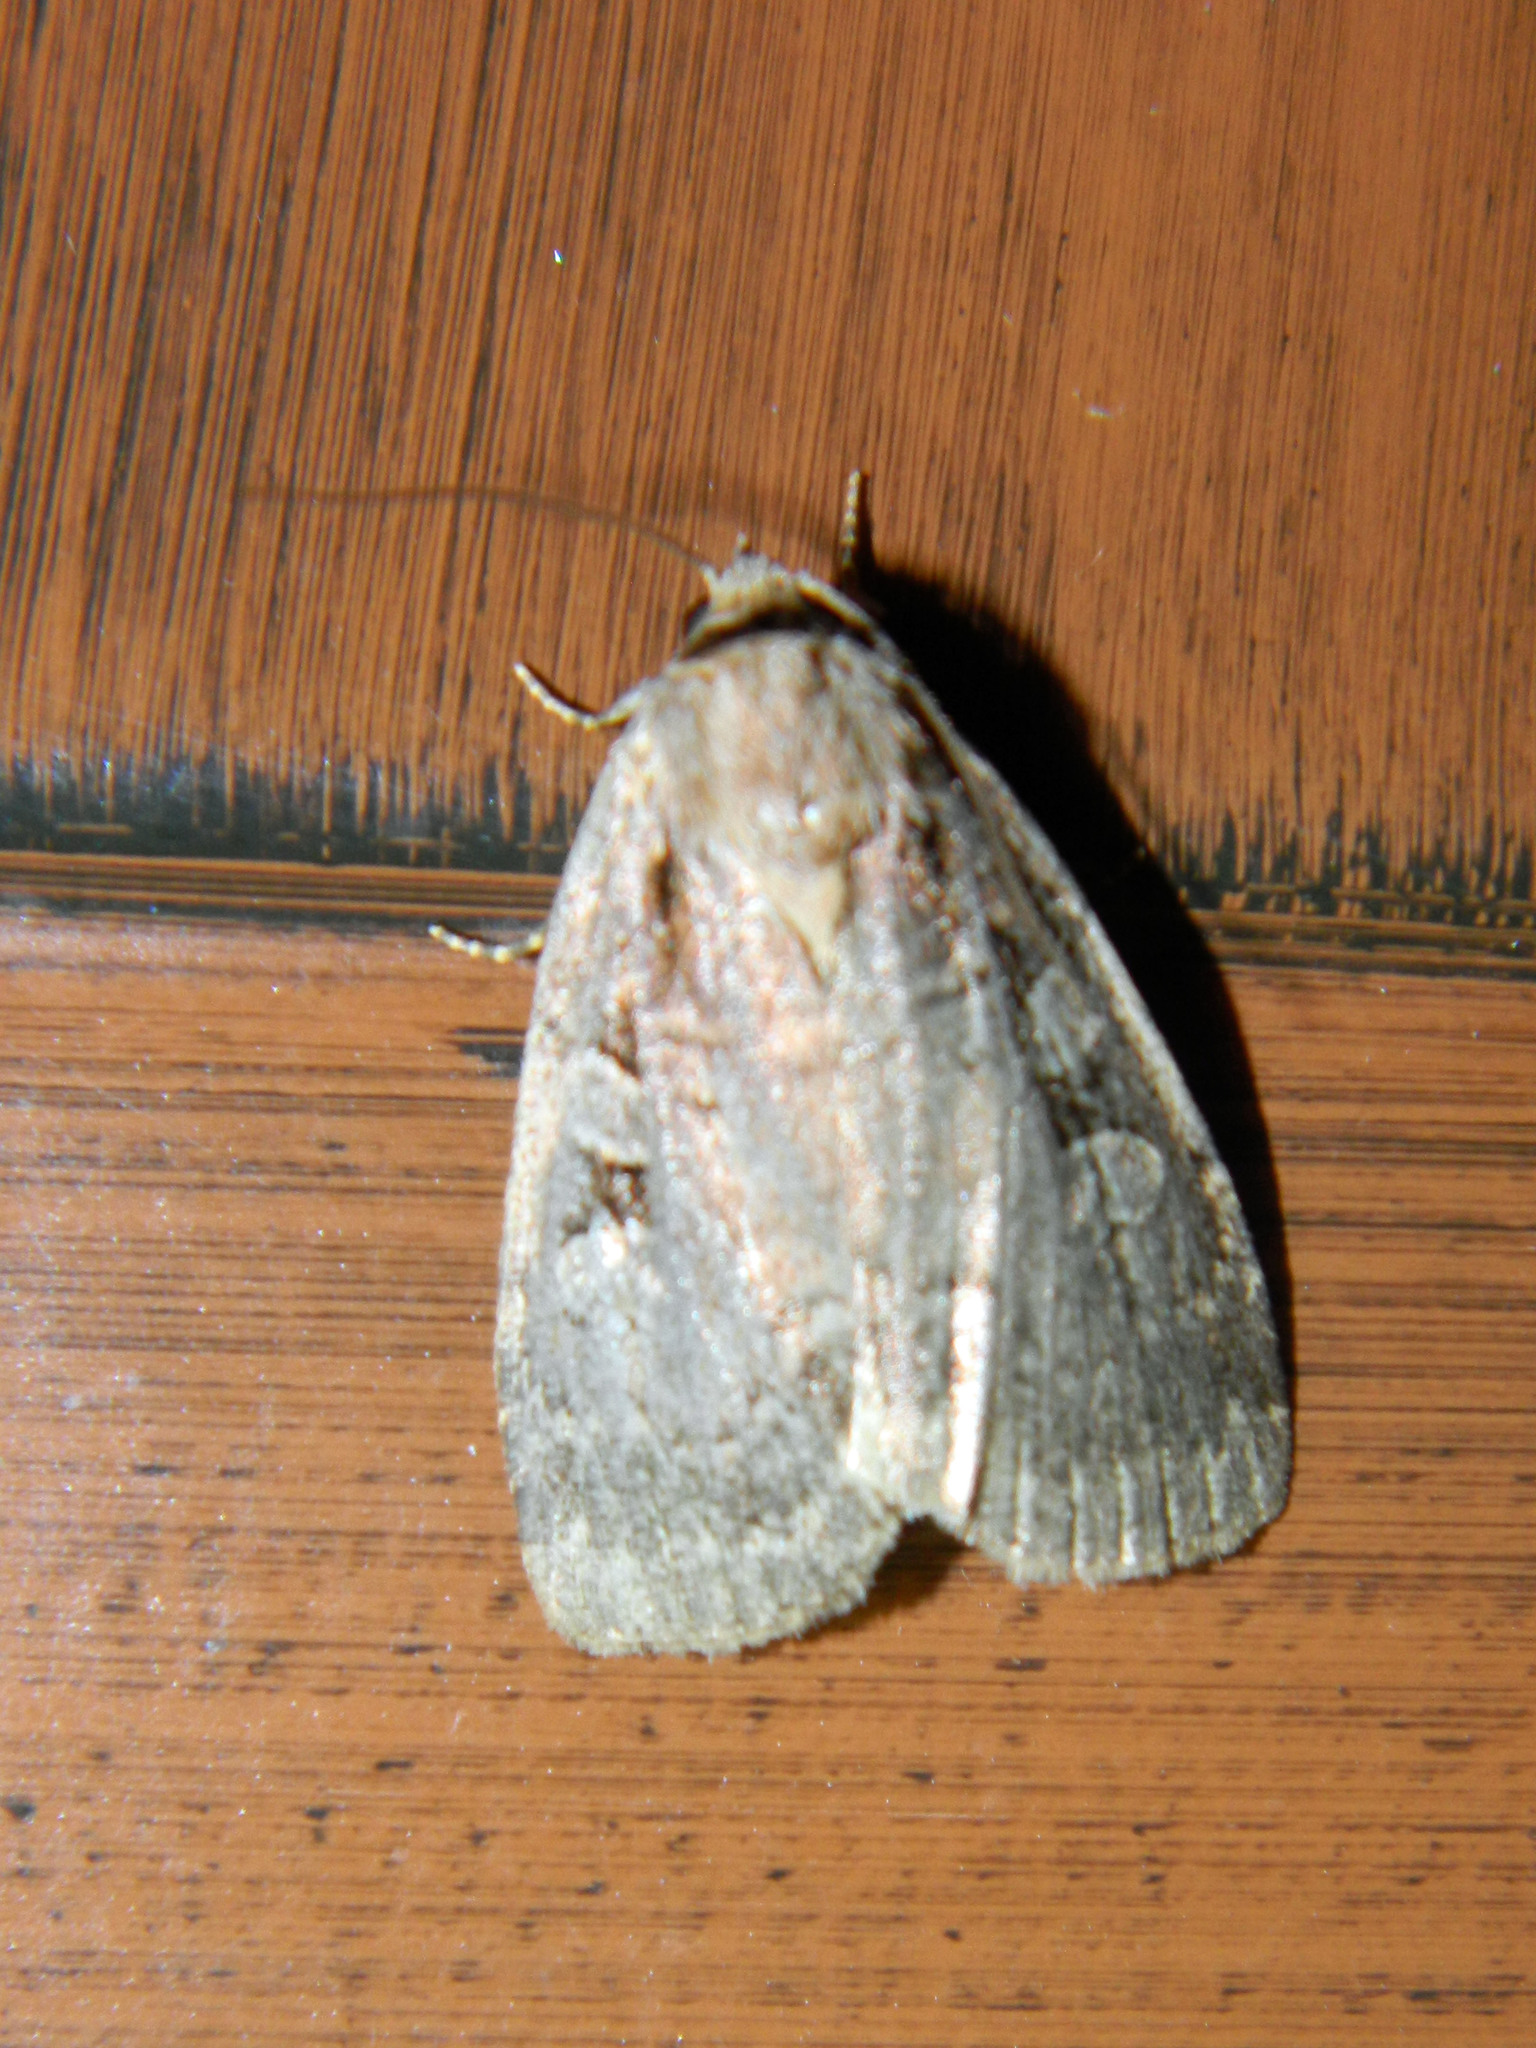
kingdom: Animalia
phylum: Arthropoda
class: Insecta
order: Lepidoptera
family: Noctuidae
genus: Eueretagrotis
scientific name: Eueretagrotis perattentus
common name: Two-spot dart moth
